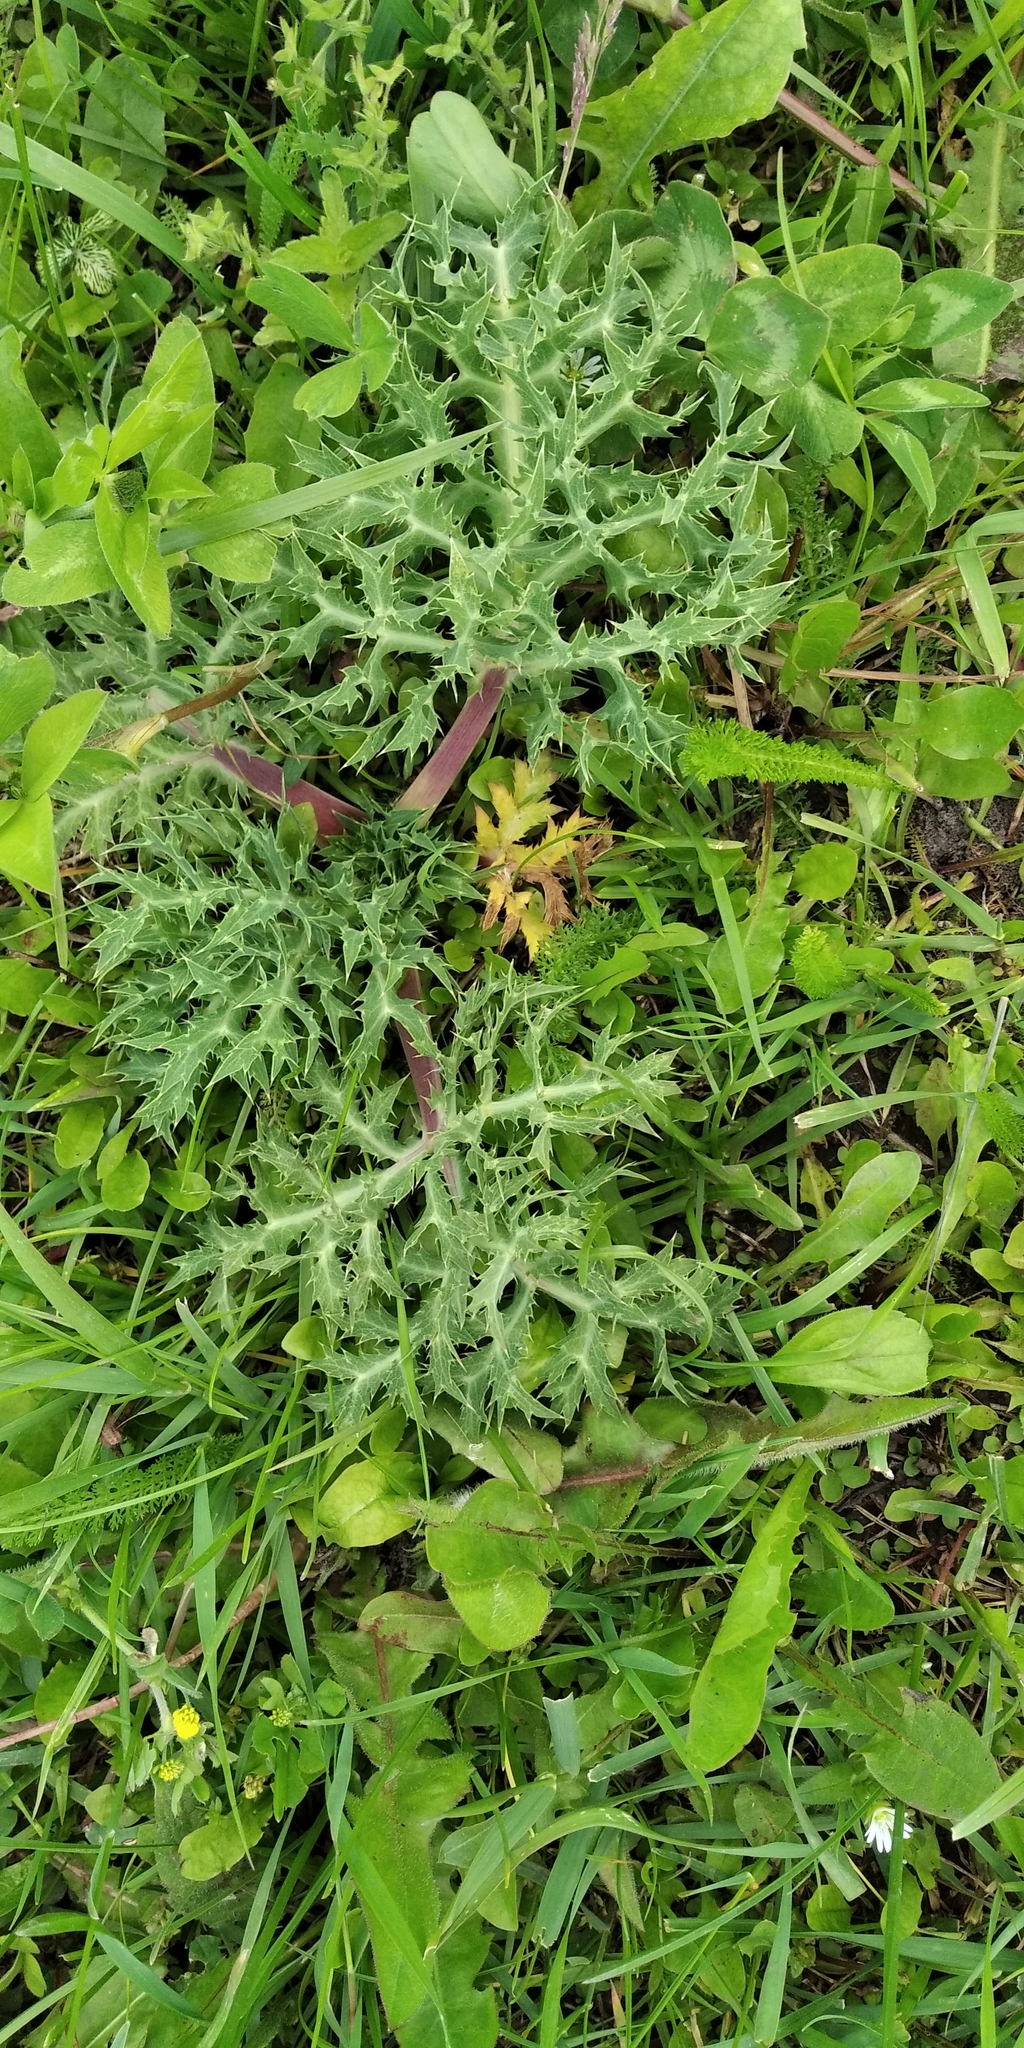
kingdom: Plantae
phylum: Tracheophyta
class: Magnoliopsida
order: Apiales
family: Apiaceae
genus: Eryngium
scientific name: Eryngium campestre
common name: Field eryngo
